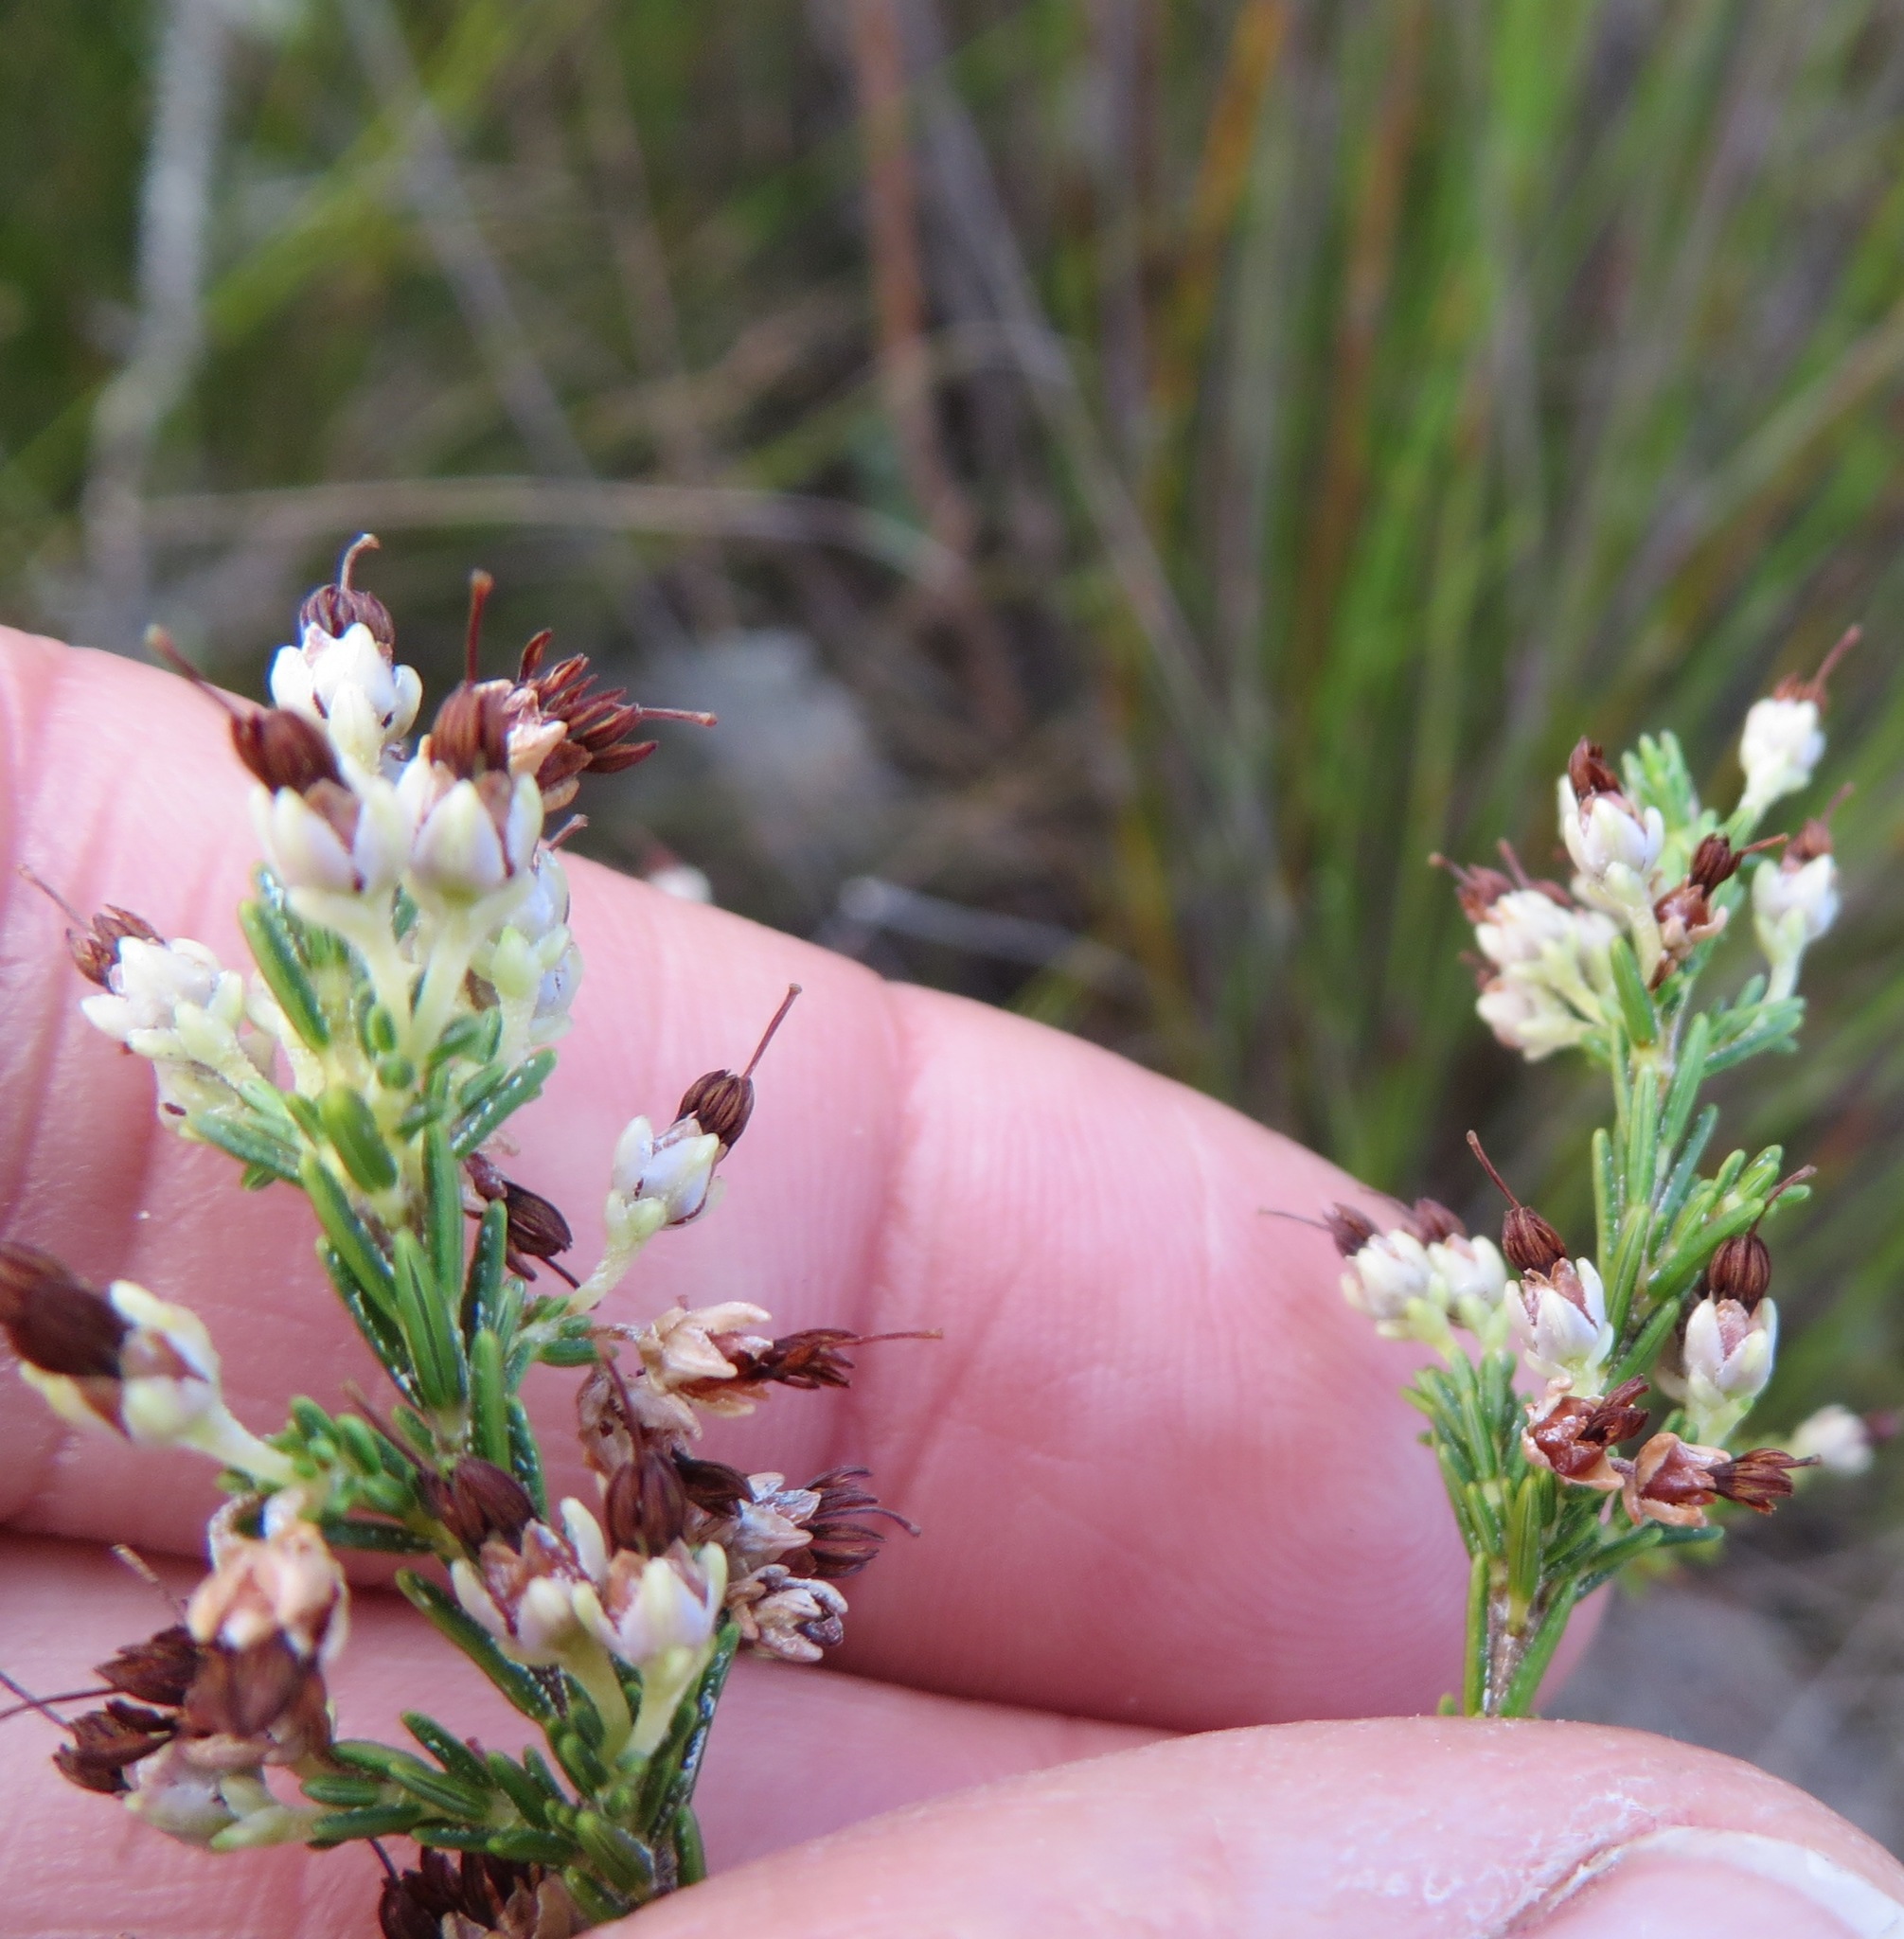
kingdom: Plantae
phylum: Tracheophyta
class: Magnoliopsida
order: Ericales
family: Ericaceae
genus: Erica
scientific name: Erica imbricata
